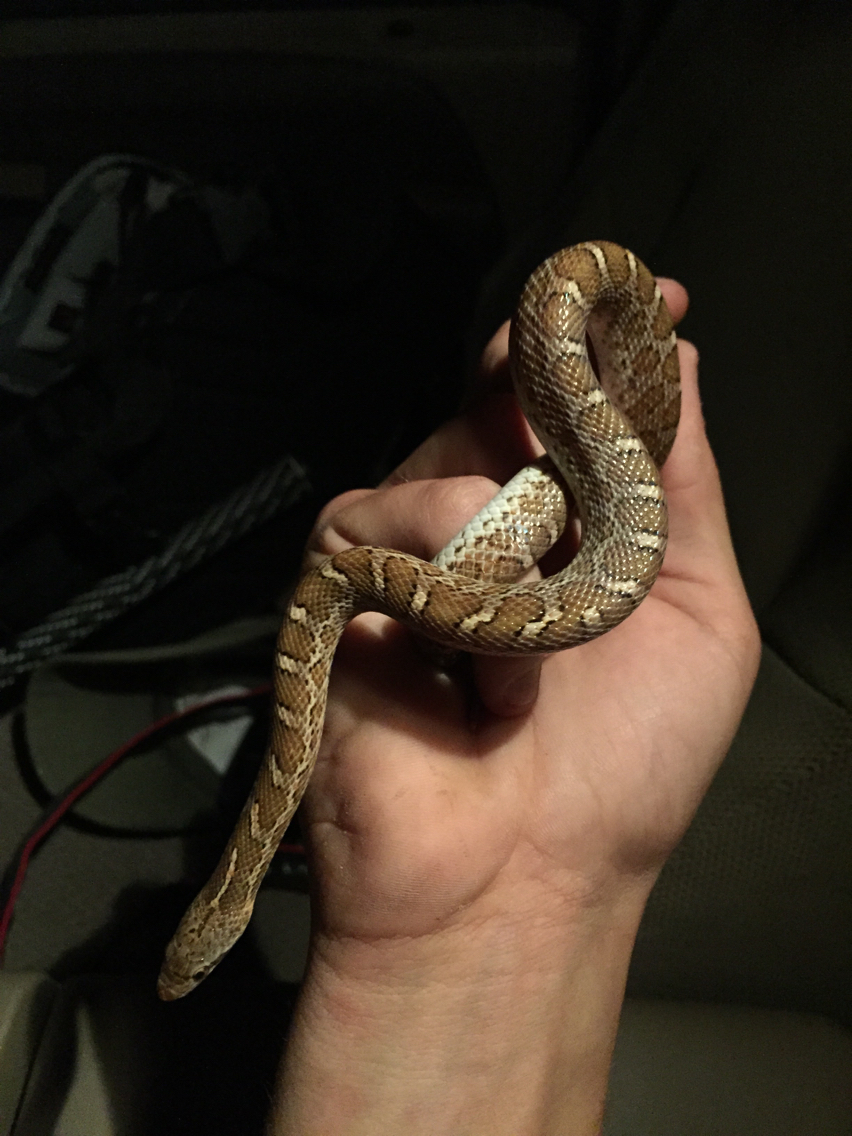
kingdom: Animalia
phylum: Chordata
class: Squamata
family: Colubridae
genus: Arizona
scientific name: Arizona elegans
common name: Glossy snake
